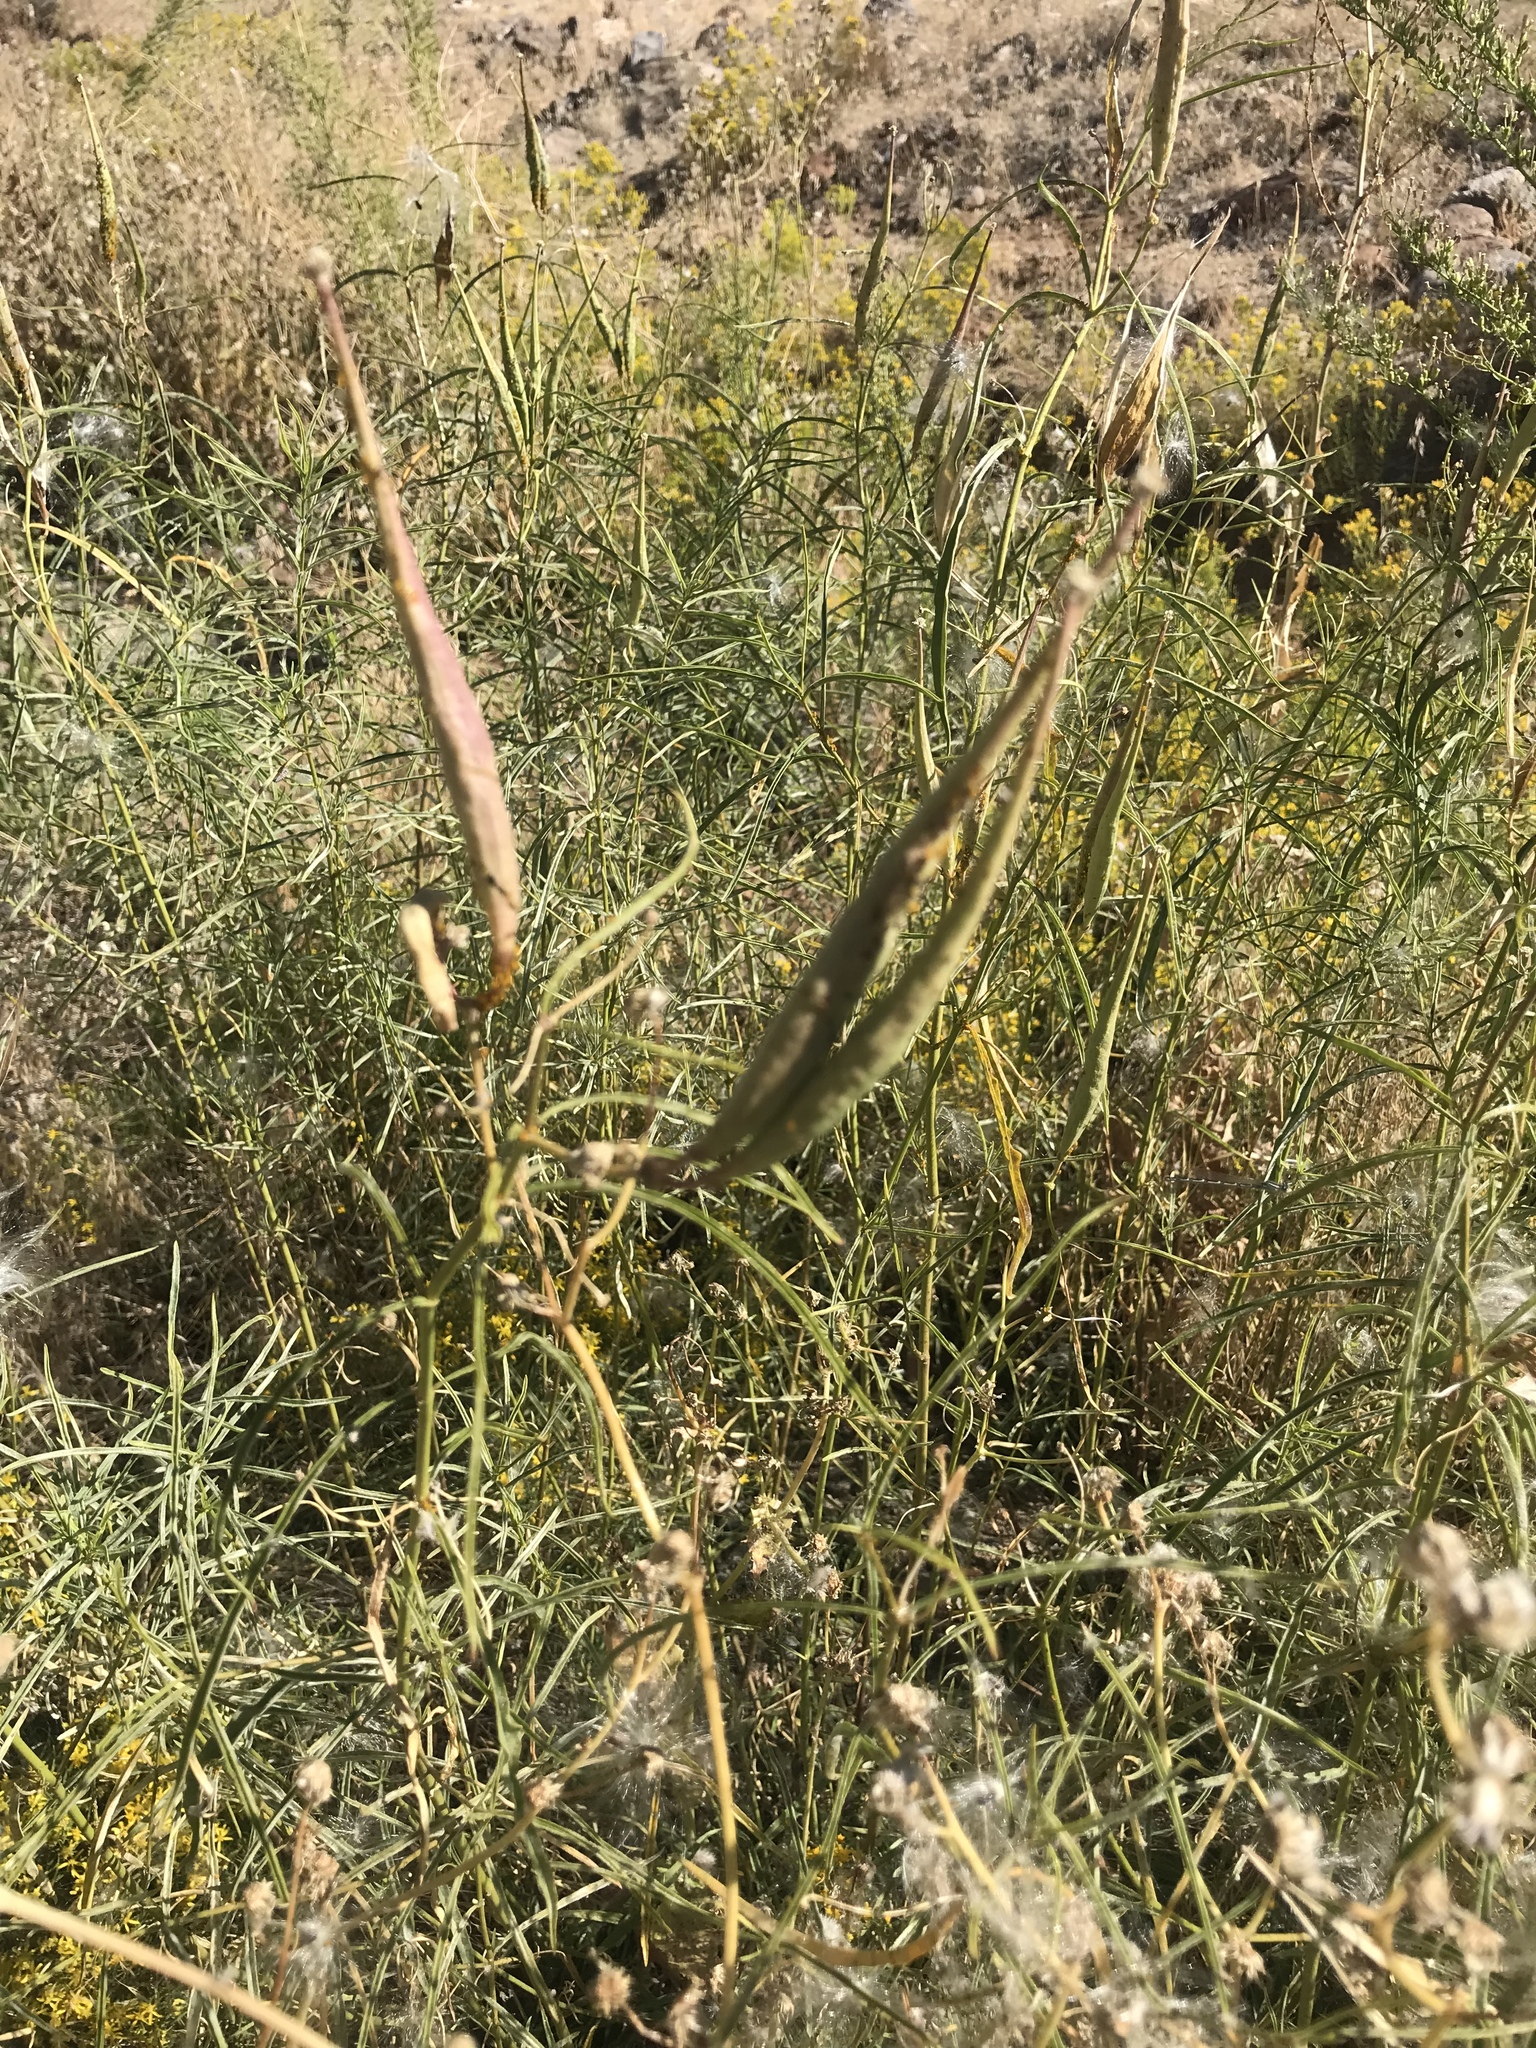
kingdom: Plantae
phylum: Tracheophyta
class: Magnoliopsida
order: Gentianales
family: Apocynaceae
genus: Asclepias
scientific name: Asclepias fascicularis
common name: Mexican milkweed
